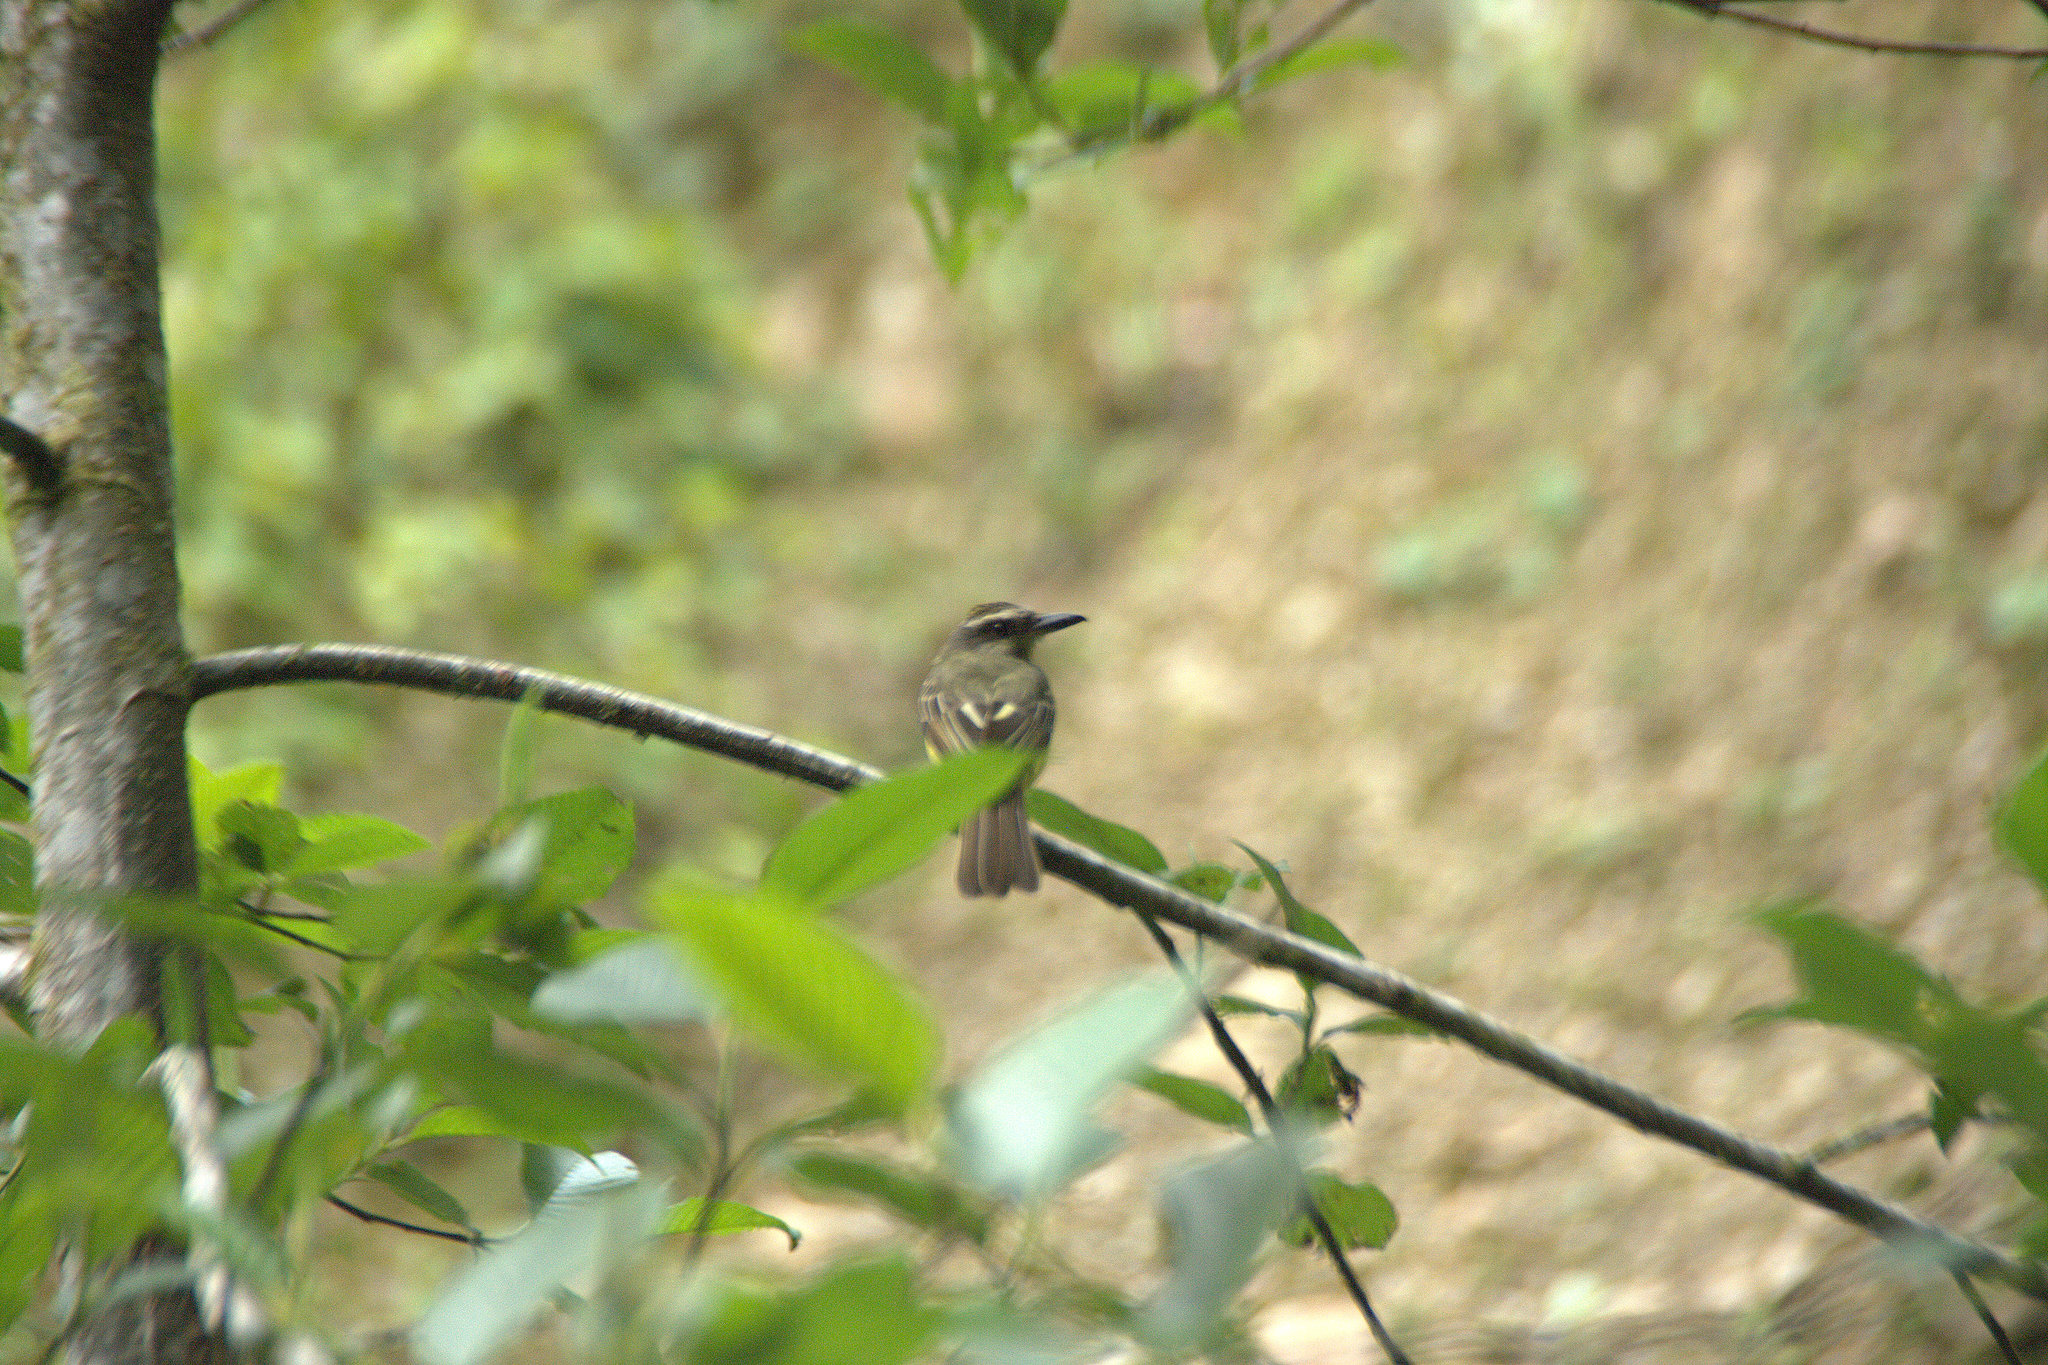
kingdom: Animalia
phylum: Chordata
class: Aves
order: Passeriformes
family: Tyrannidae
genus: Myiodynastes
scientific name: Myiodynastes chrysocephalus
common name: Golden-crowned flycatcher
